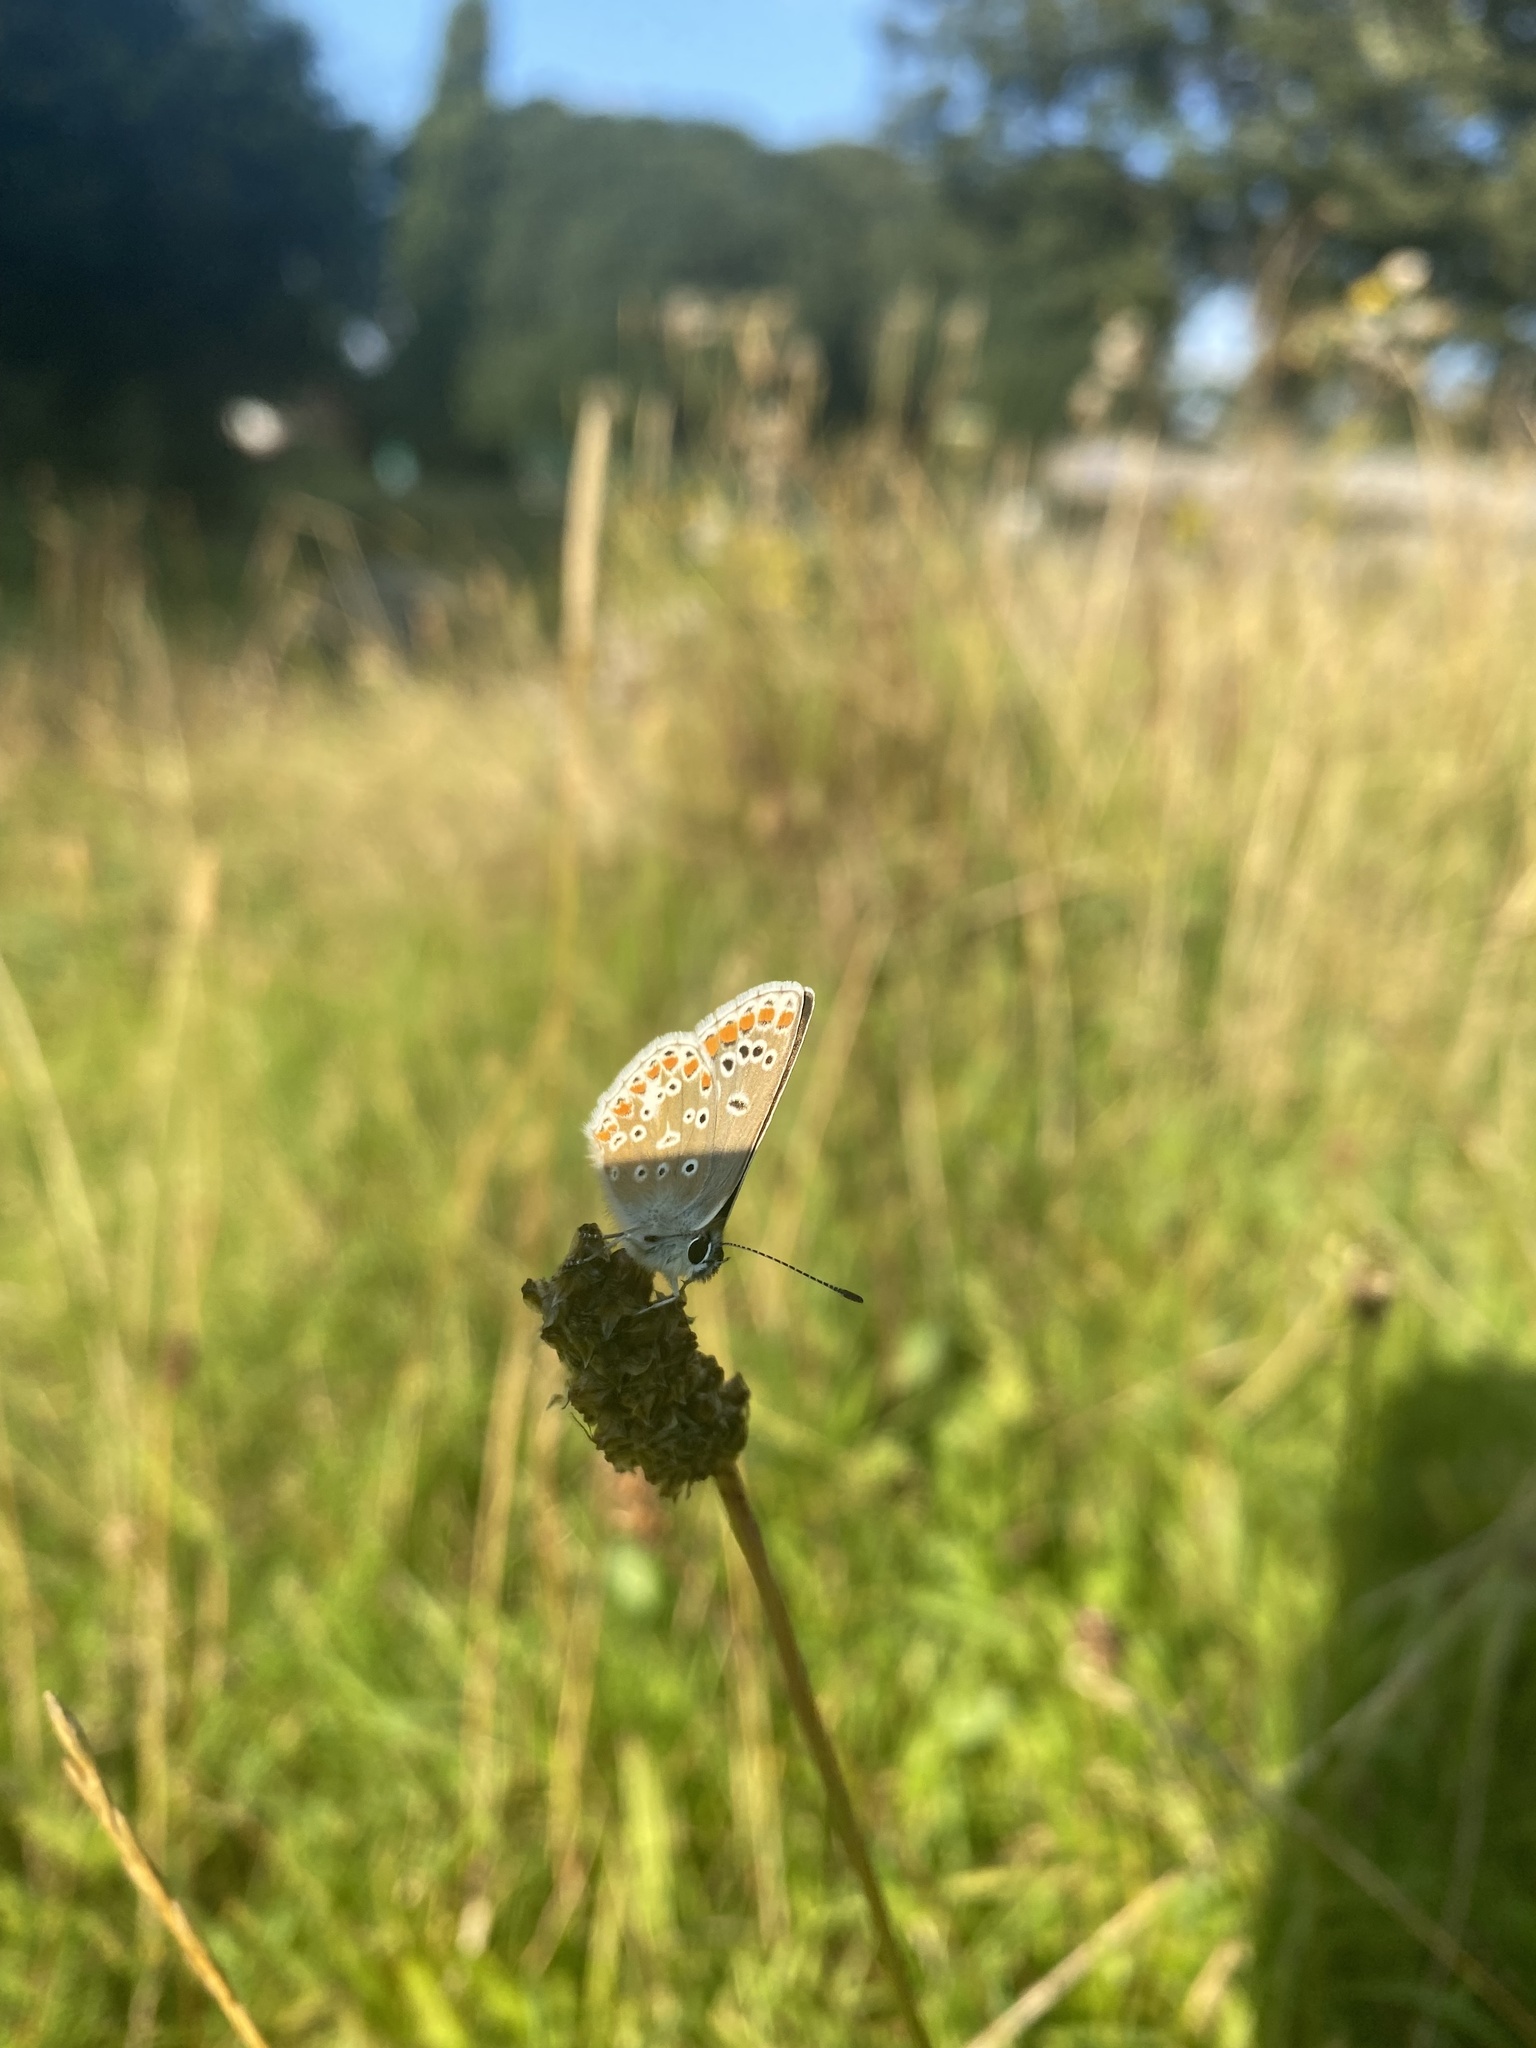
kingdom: Animalia
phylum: Arthropoda
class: Insecta
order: Lepidoptera
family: Lycaenidae
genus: Aricia
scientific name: Aricia agestis
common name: Brown argus
